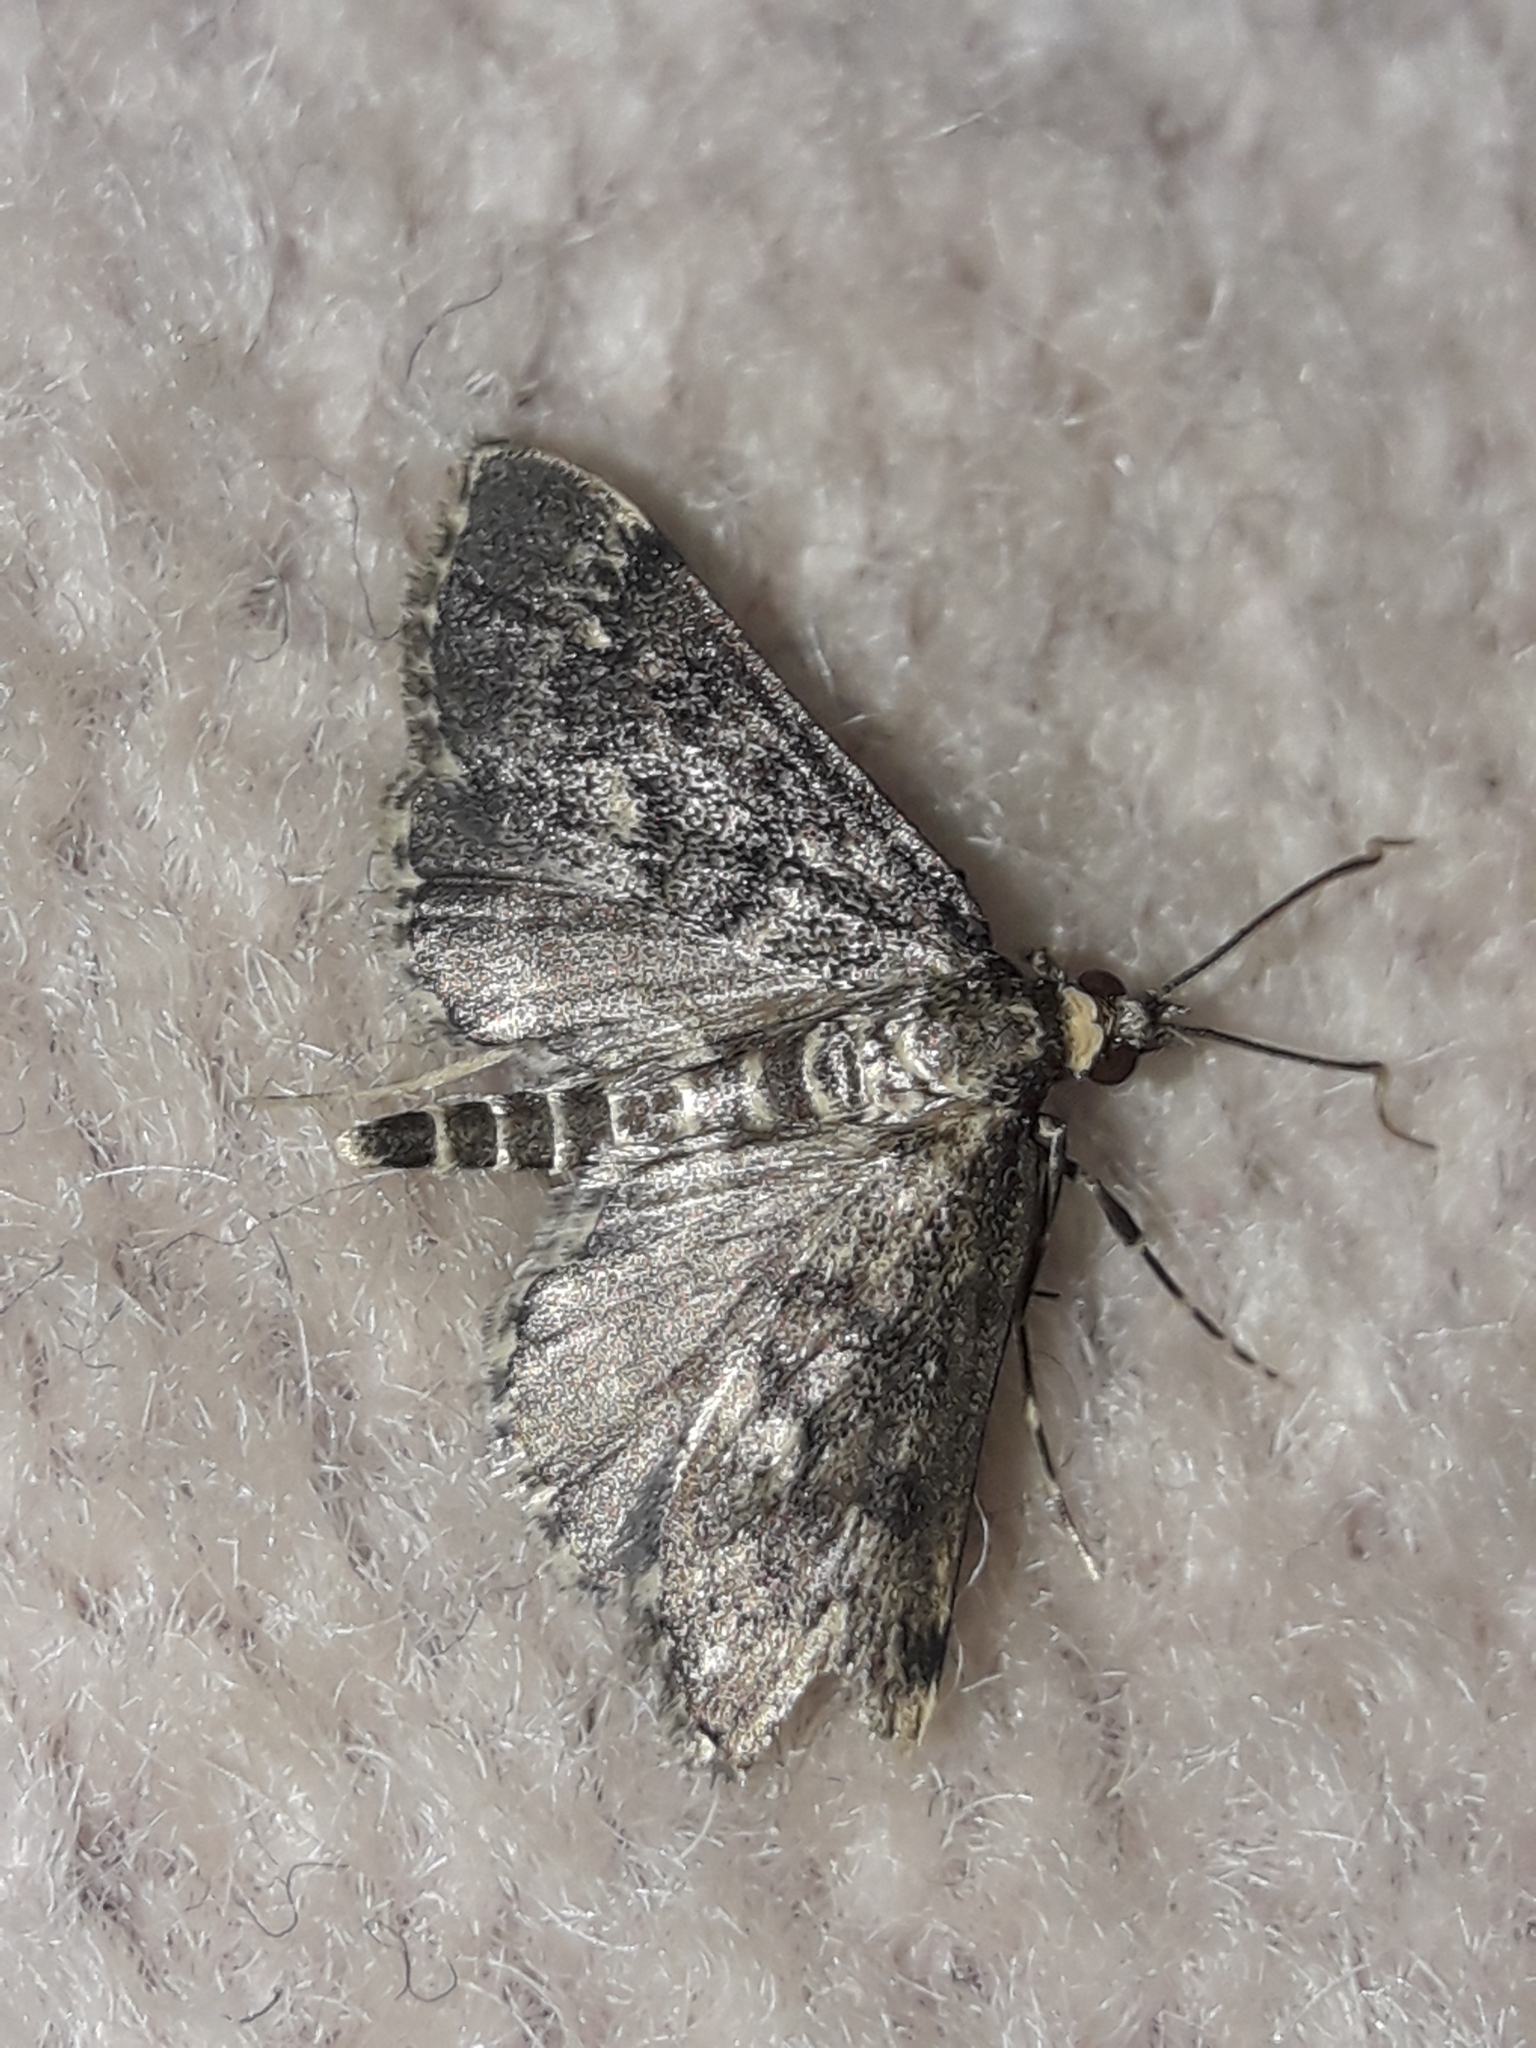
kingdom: Animalia
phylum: Arthropoda
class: Insecta
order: Lepidoptera
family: Crambidae
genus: Loxostege
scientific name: Loxostege Proternia philocapna
